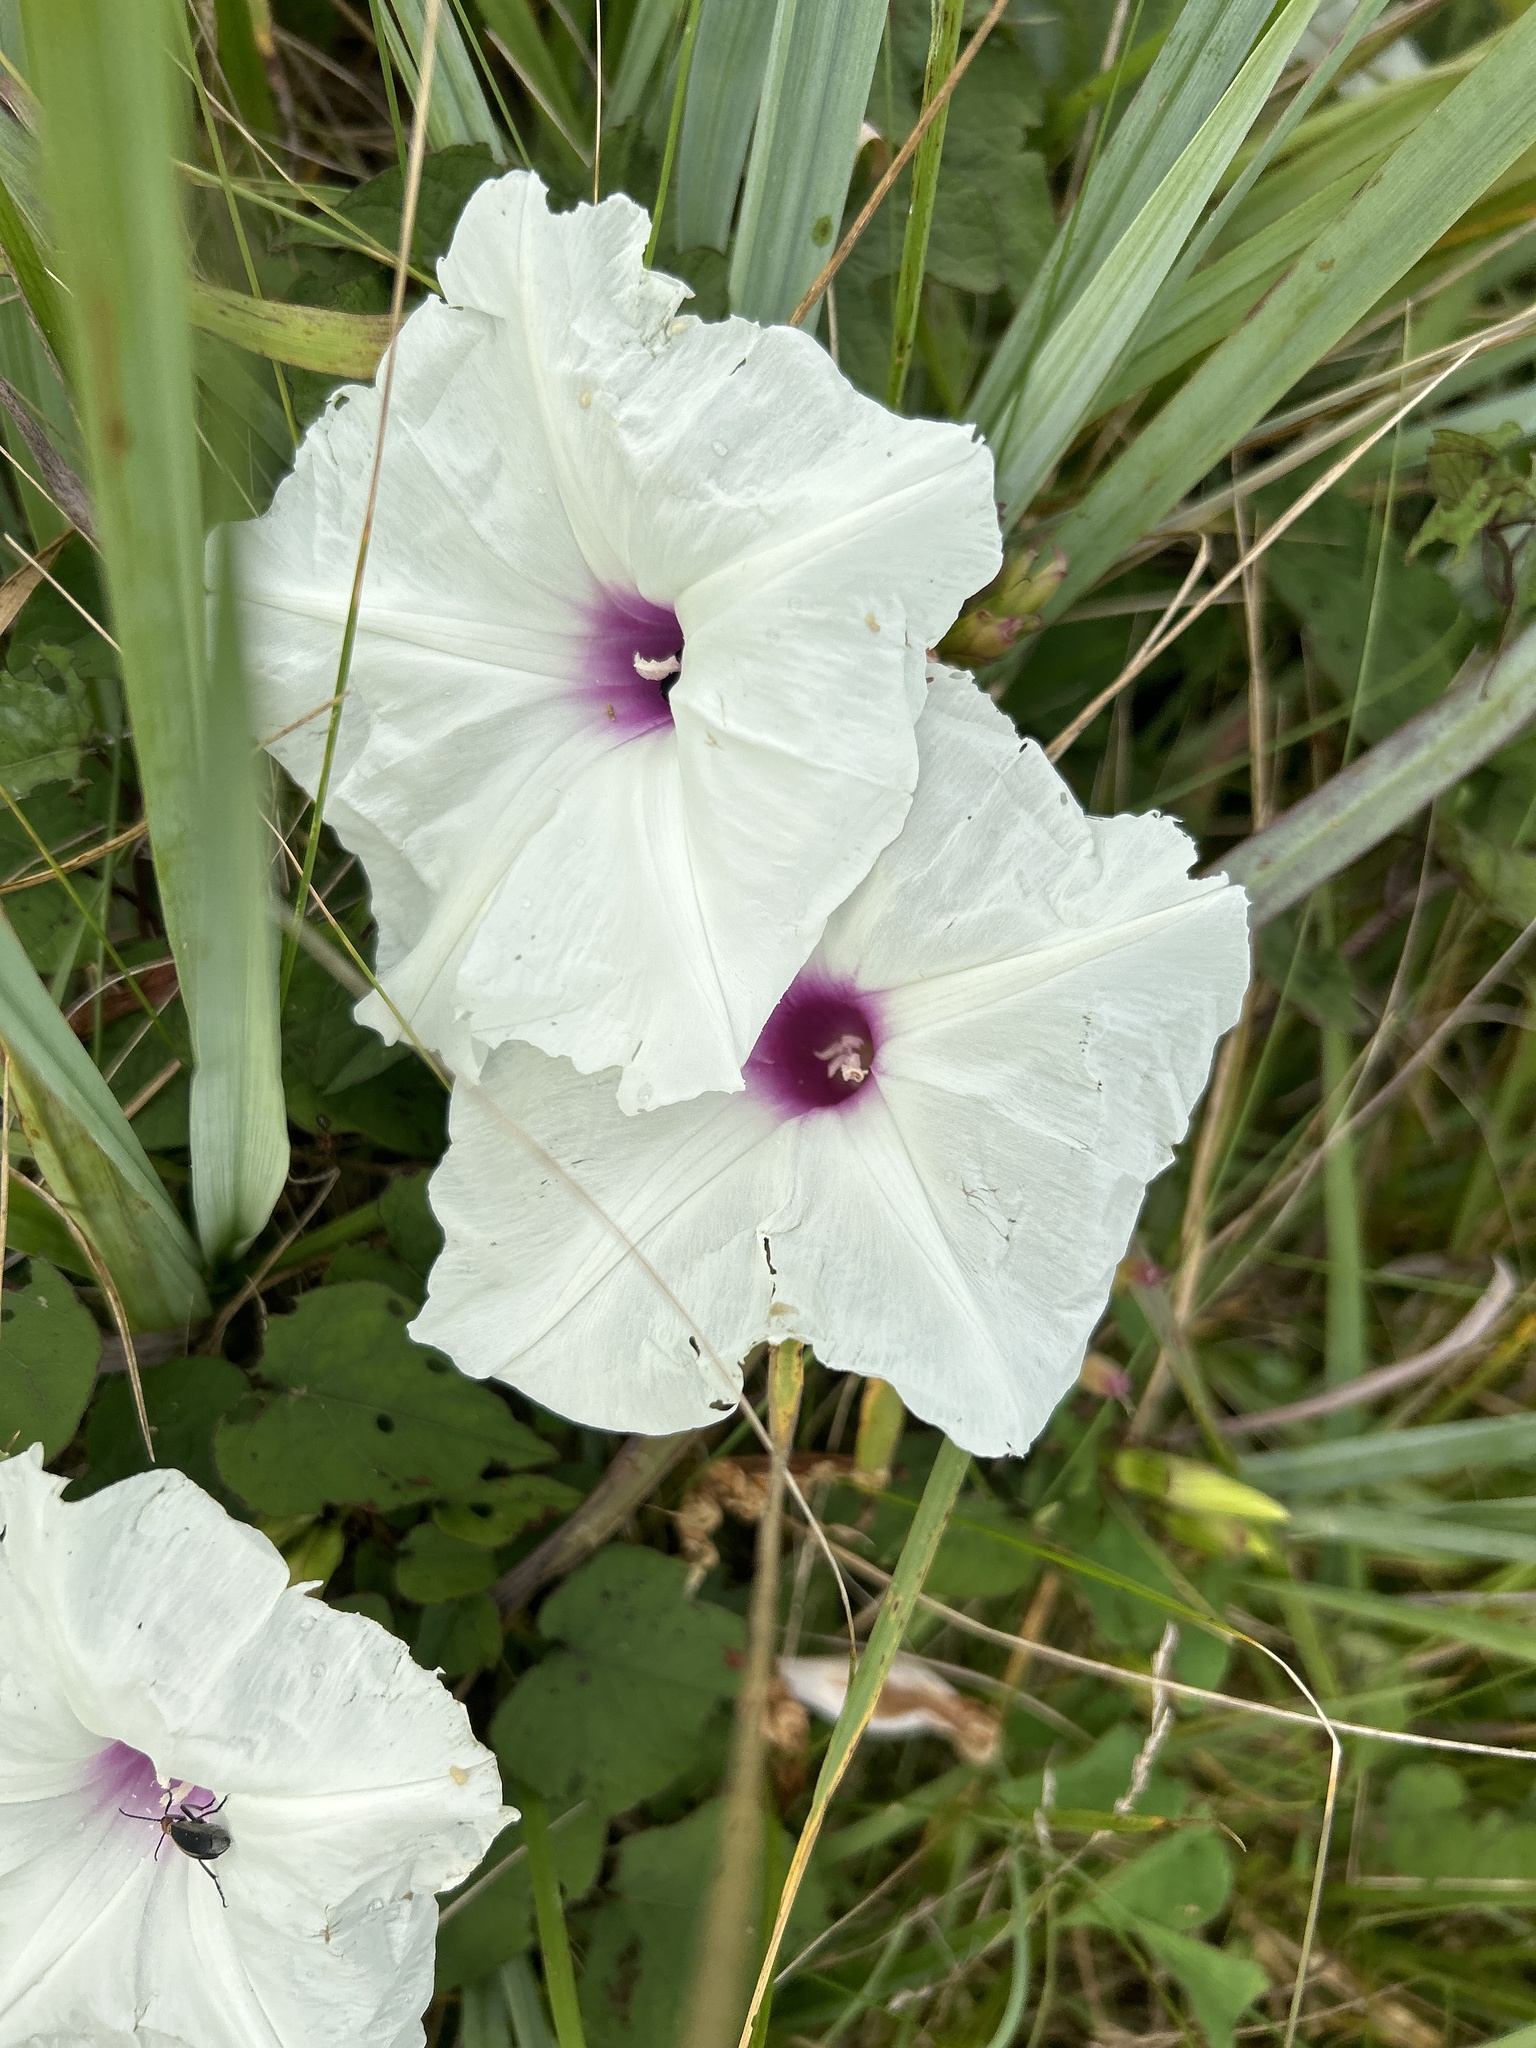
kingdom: Plantae
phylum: Tracheophyta
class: Magnoliopsida
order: Solanales
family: Convolvulaceae
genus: Ipomoea
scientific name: Ipomoea pandurata
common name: Man-of-the-earth
